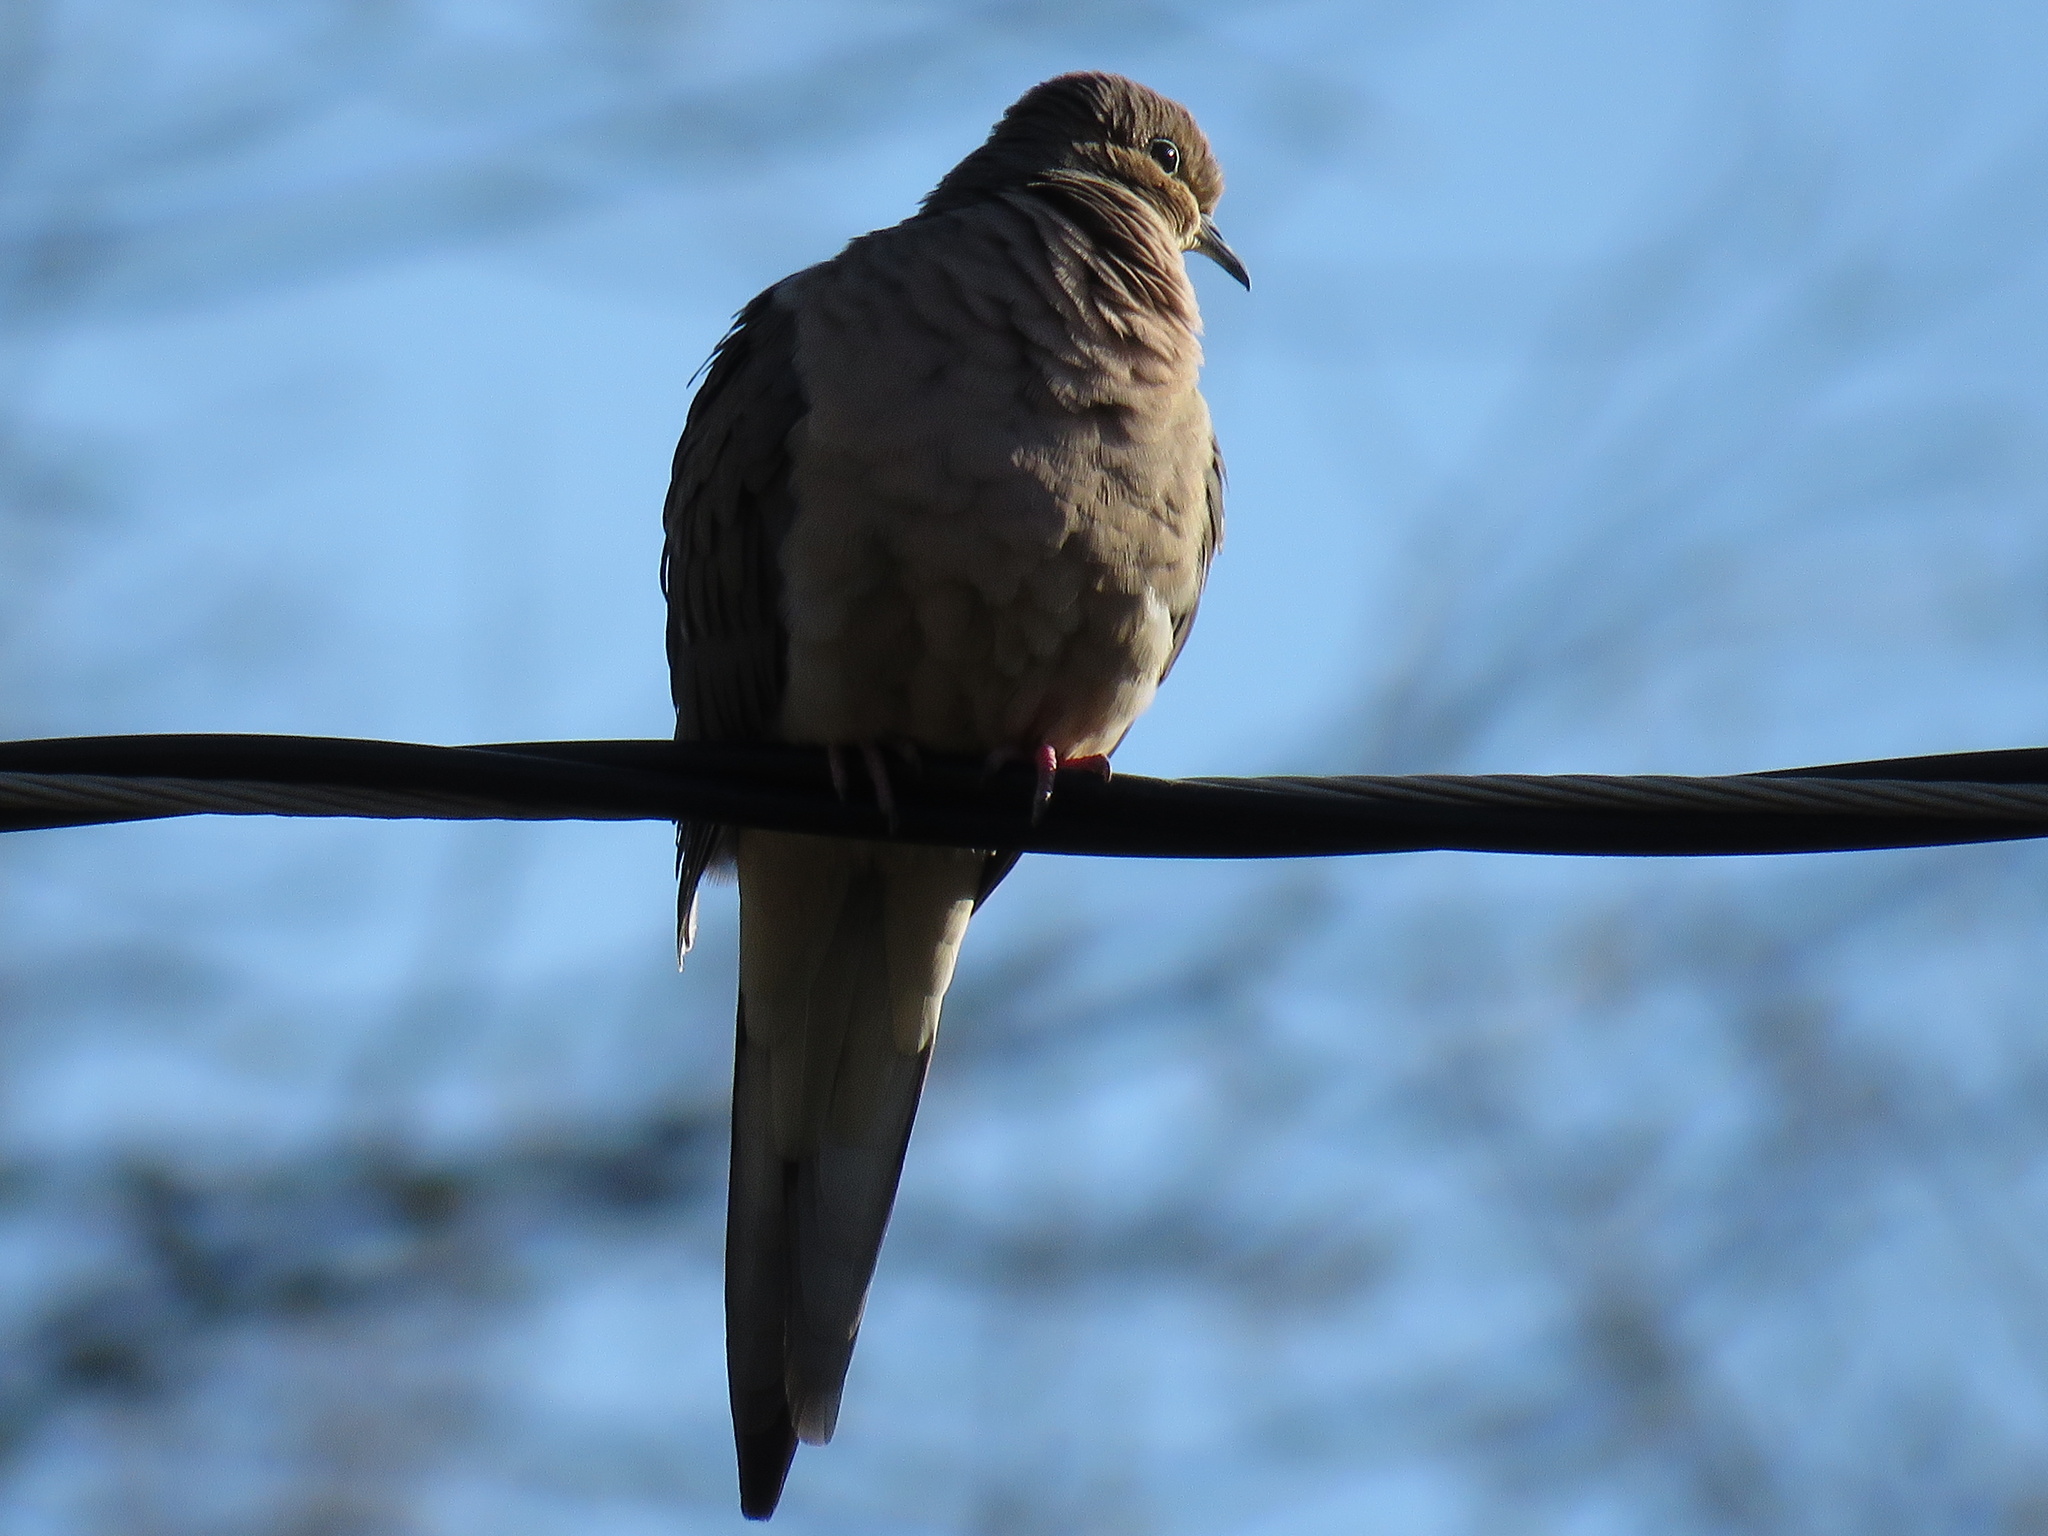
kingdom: Animalia
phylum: Chordata
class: Aves
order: Columbiformes
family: Columbidae
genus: Zenaida
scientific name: Zenaida macroura
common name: Mourning dove
